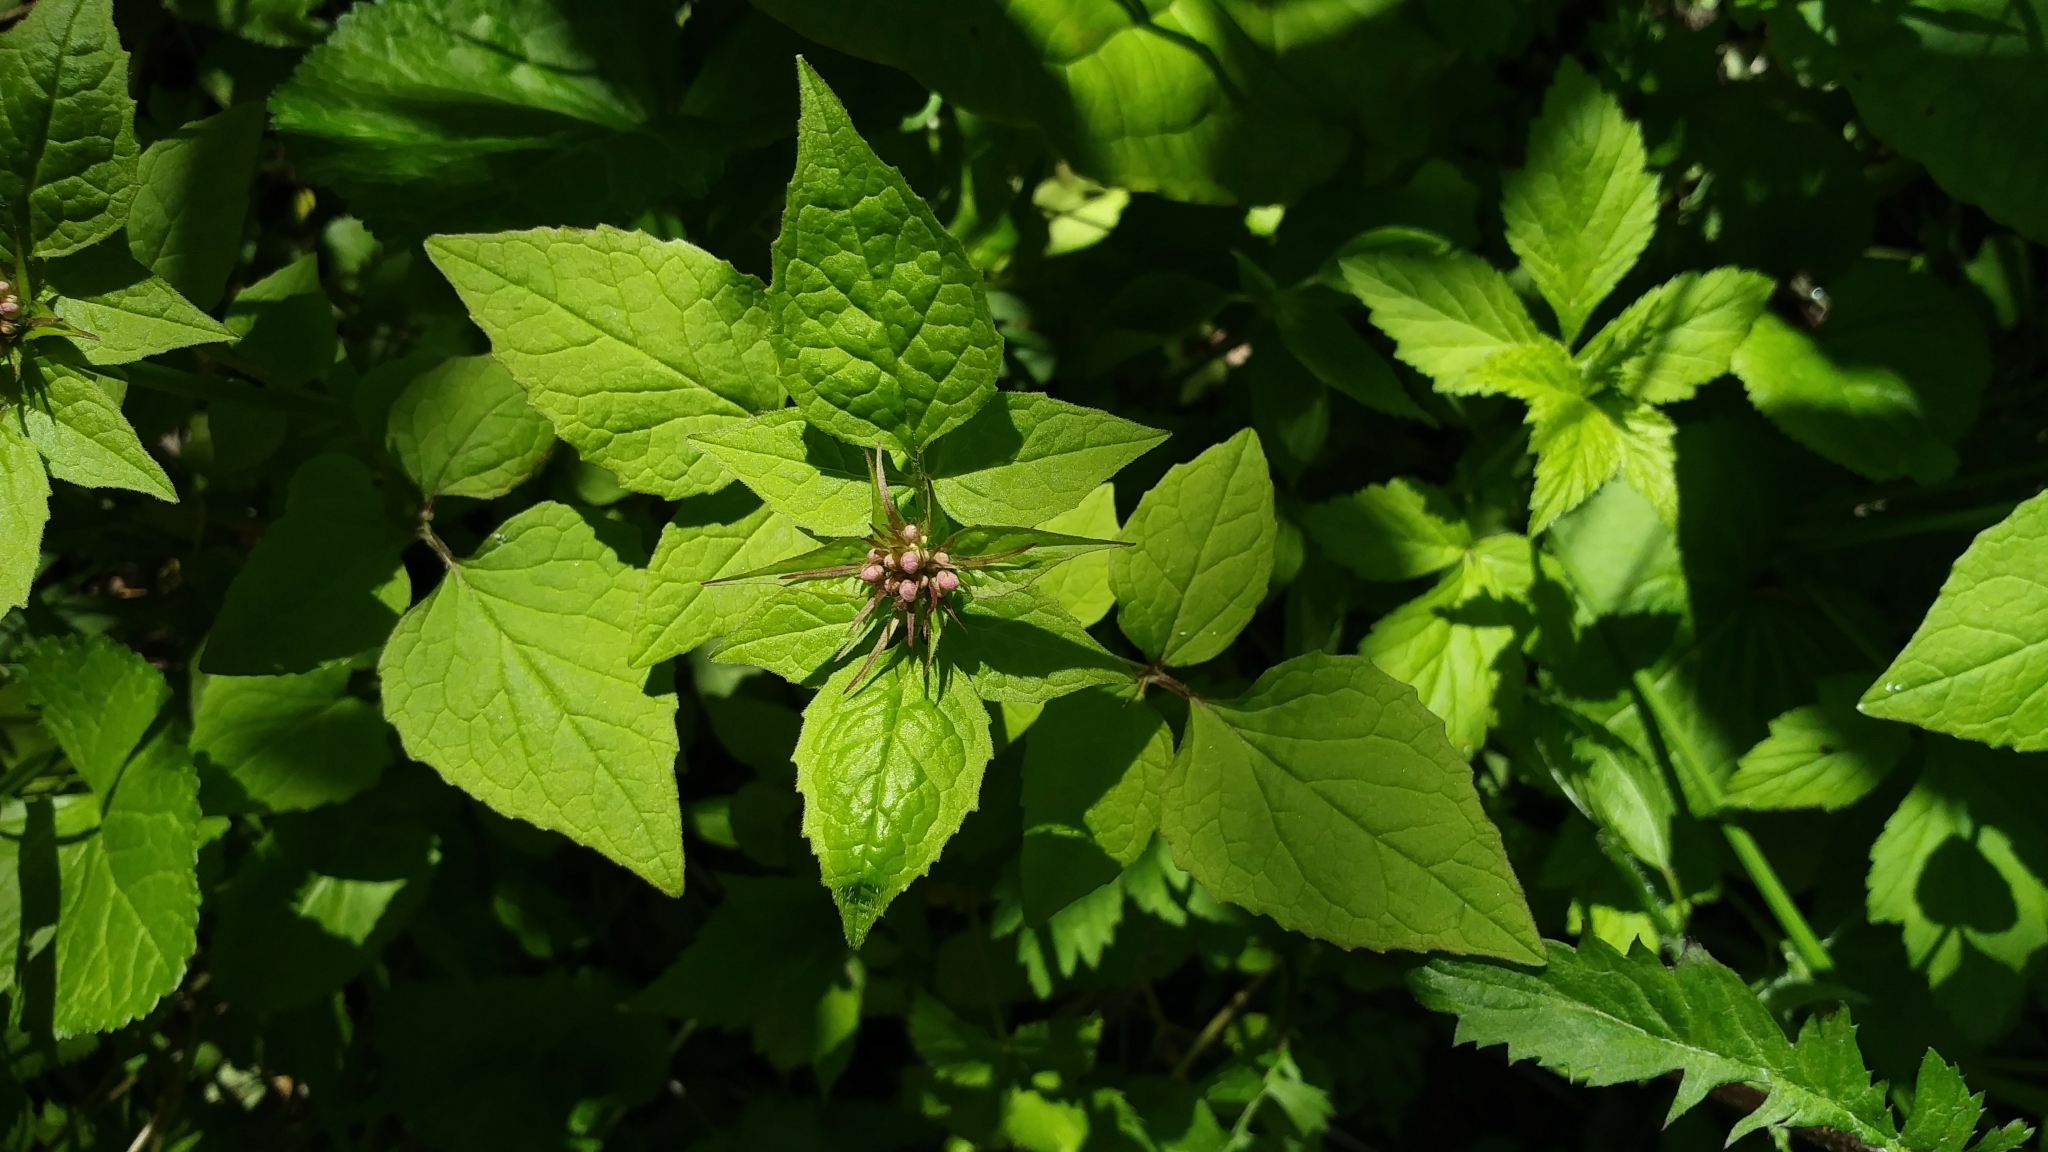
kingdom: Plantae
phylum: Tracheophyta
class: Magnoliopsida
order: Dipsacales
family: Caprifoliaceae
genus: Valeriana
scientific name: Valeriana pauciflora
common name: Long-tube valeriana
